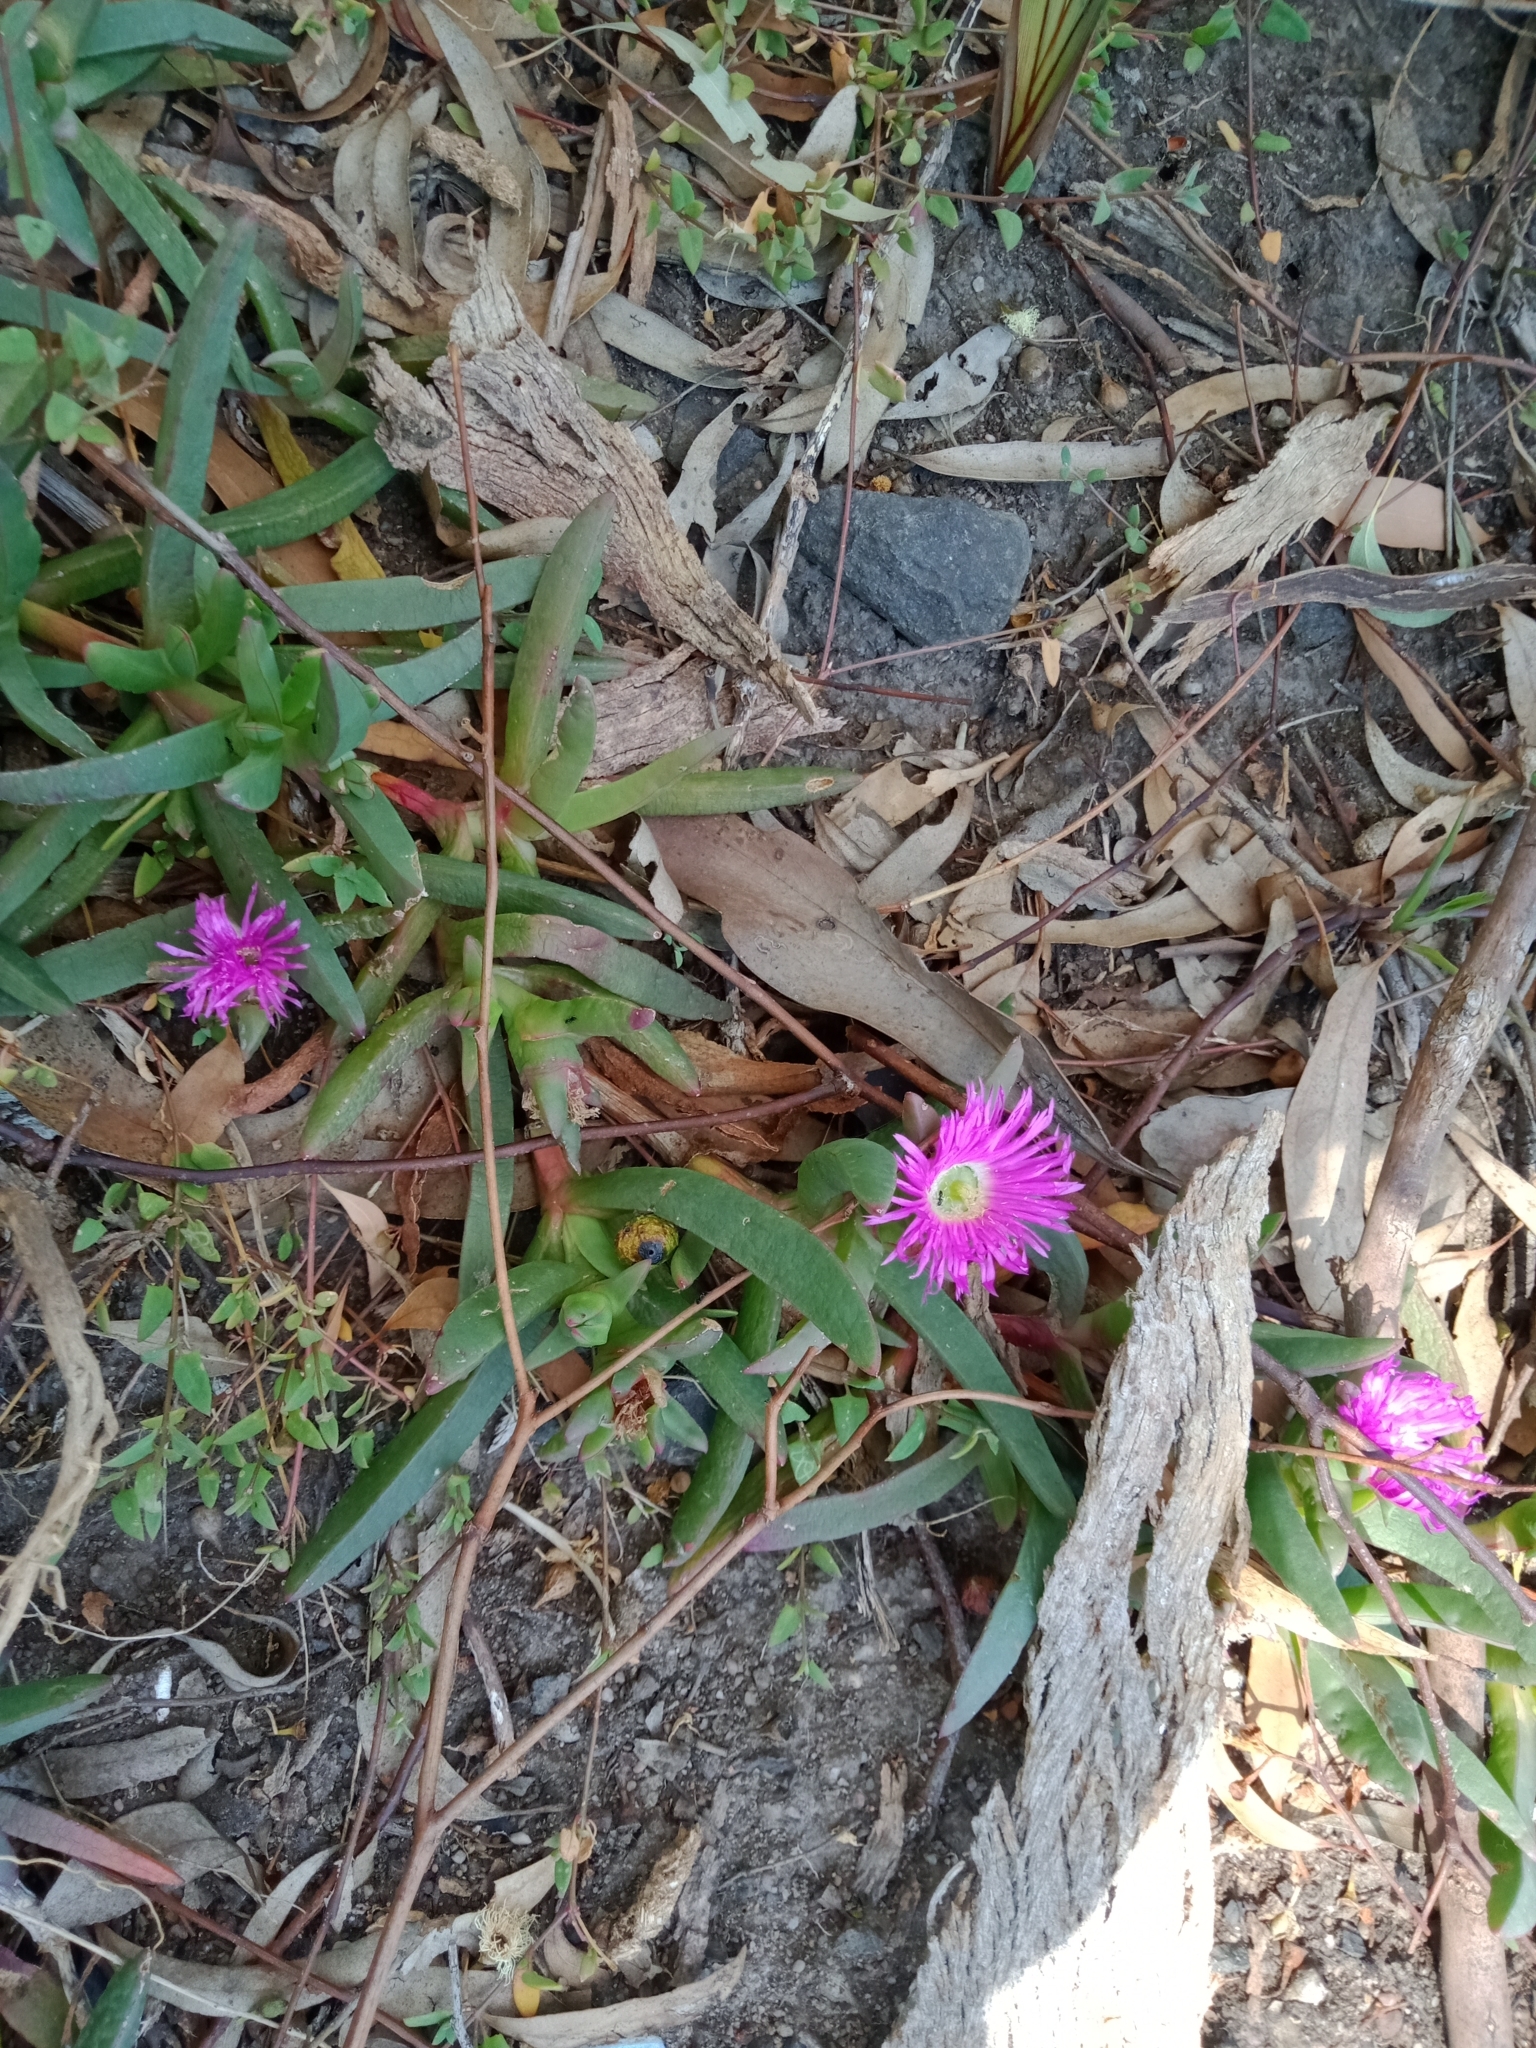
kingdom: Plantae
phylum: Tracheophyta
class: Magnoliopsida
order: Caryophyllales
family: Aizoaceae
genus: Carpobrotus
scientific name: Carpobrotus modestus
